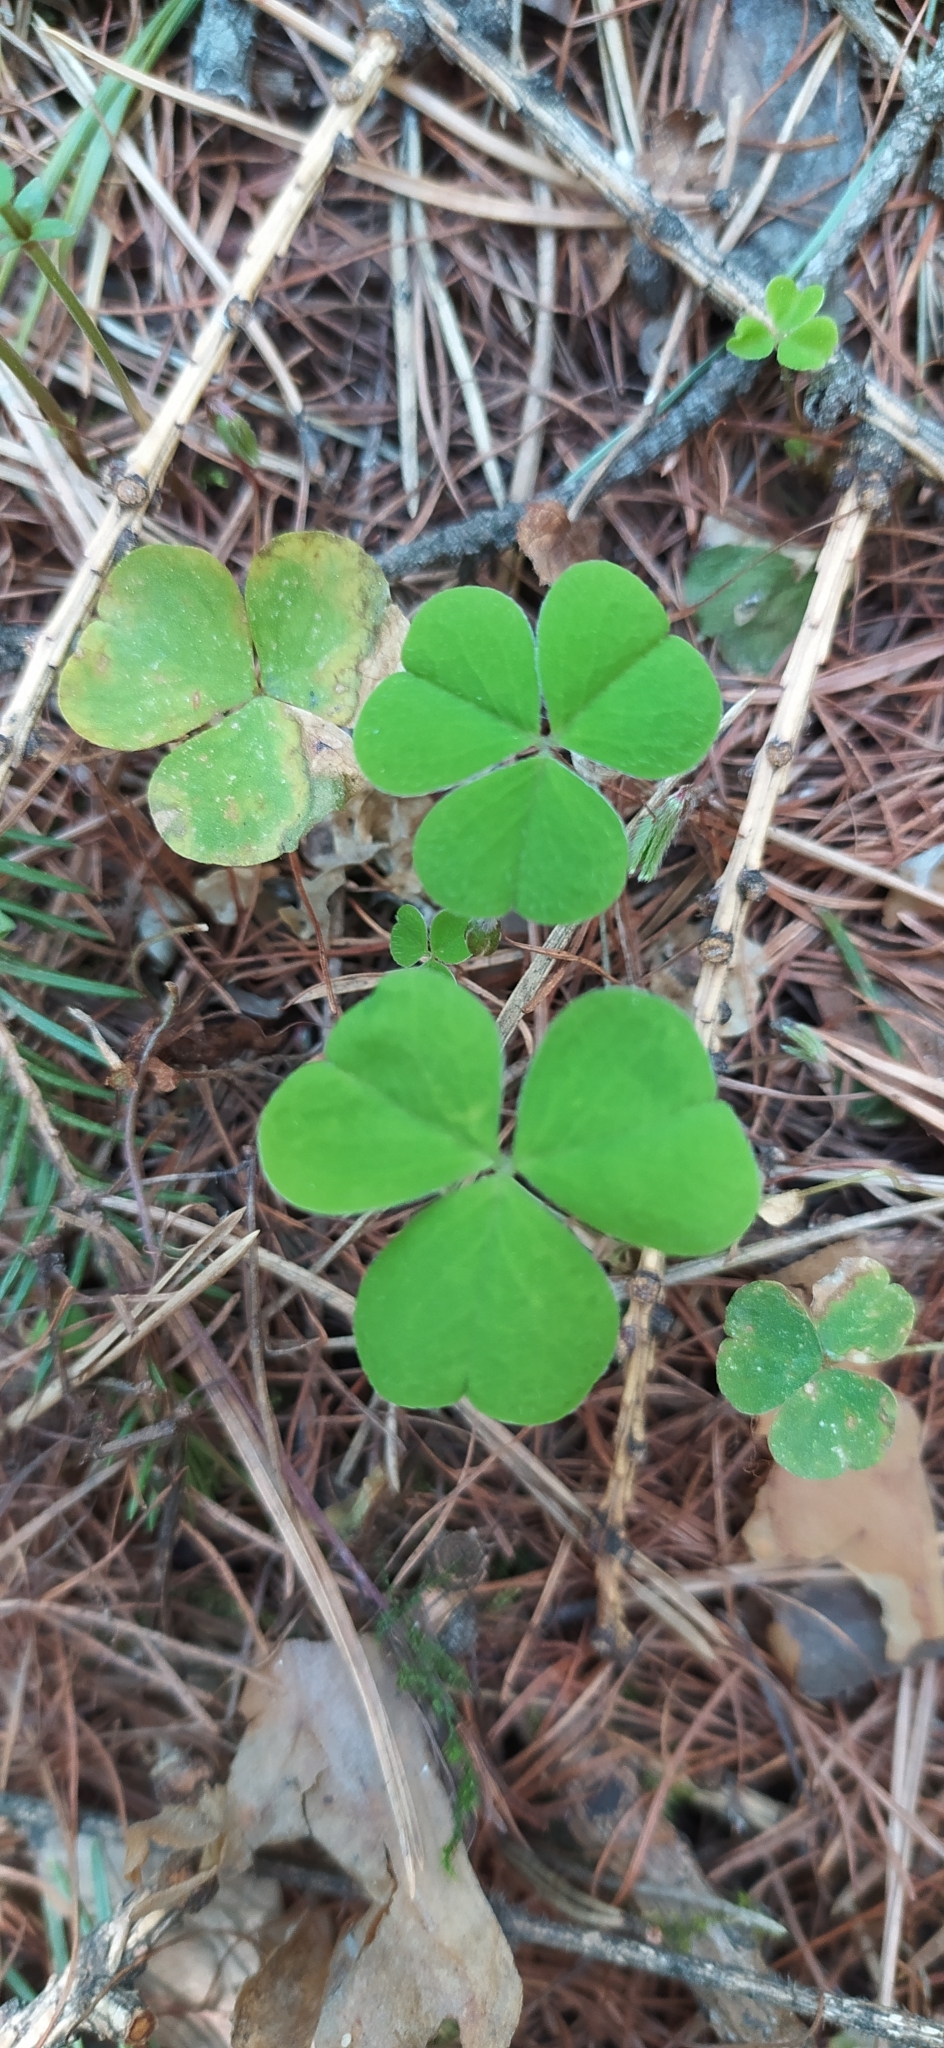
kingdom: Plantae
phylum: Tracheophyta
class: Magnoliopsida
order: Oxalidales
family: Oxalidaceae
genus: Oxalis
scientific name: Oxalis acetosella
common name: Wood-sorrel
